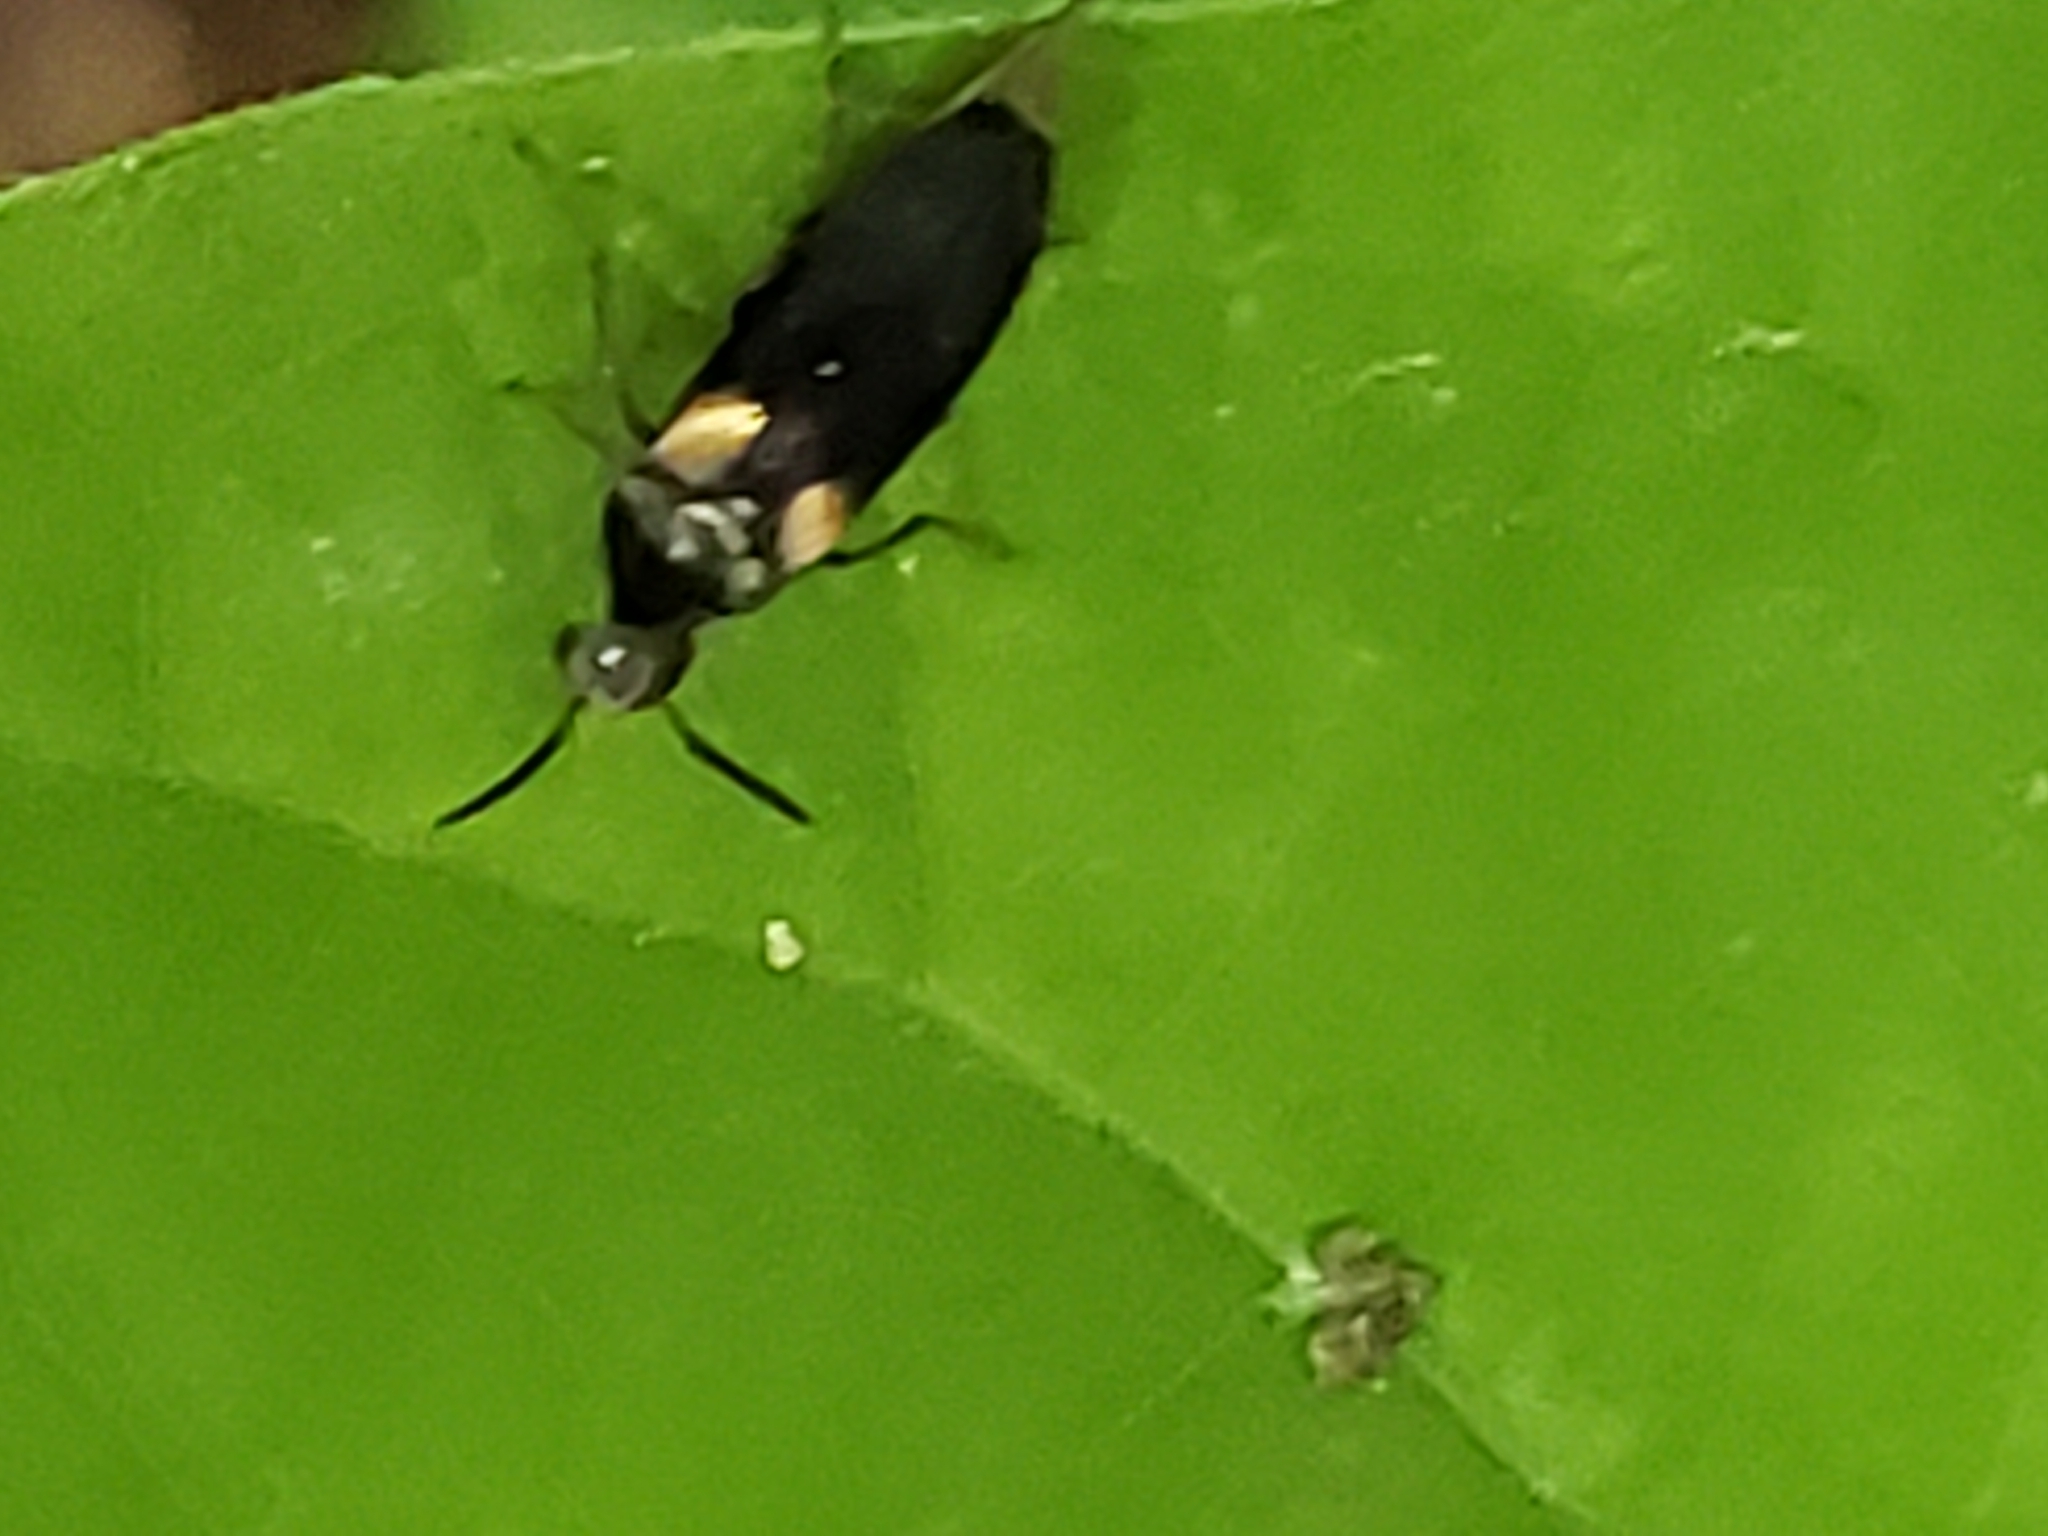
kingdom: Animalia
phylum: Arthropoda
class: Insecta
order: Coleoptera
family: Mordellidae
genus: Mordellochroa
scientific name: Mordellochroa scapularis
